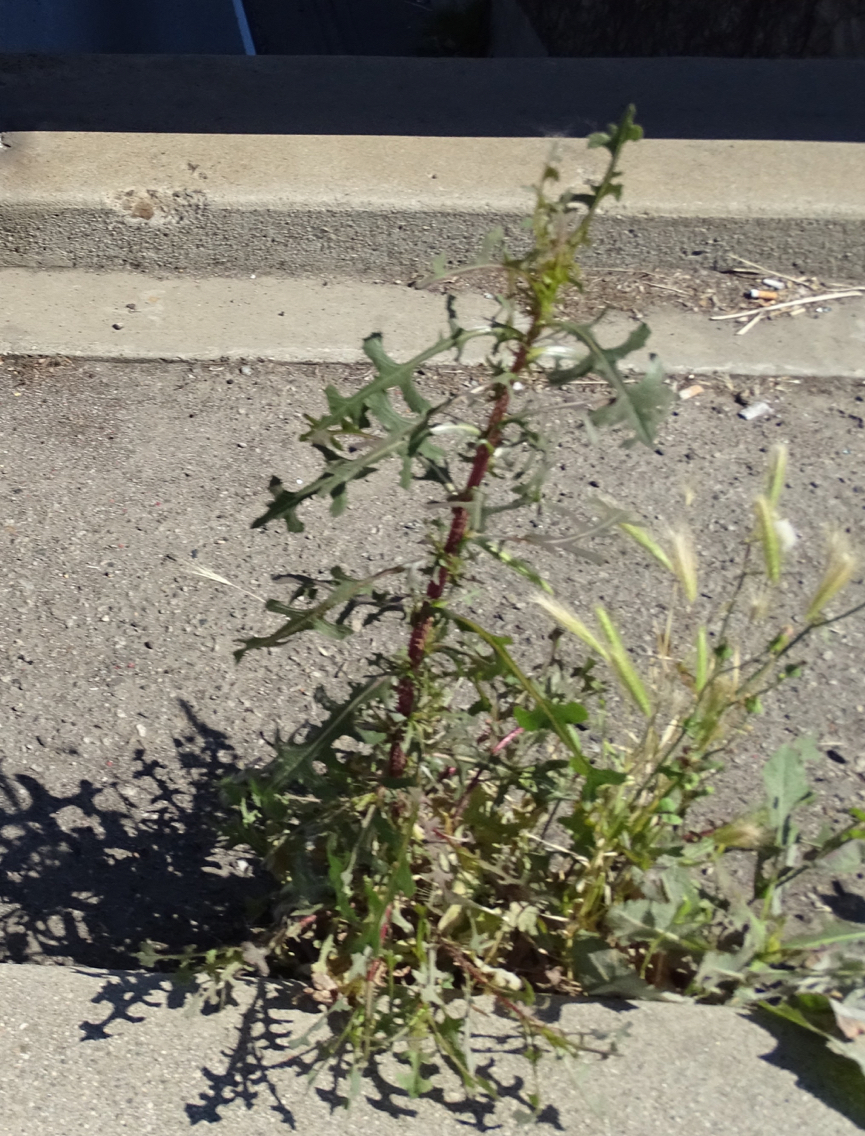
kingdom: Plantae
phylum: Tracheophyta
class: Magnoliopsida
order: Asterales
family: Asteraceae
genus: Lactuca
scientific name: Lactuca serriola
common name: Prickly lettuce
